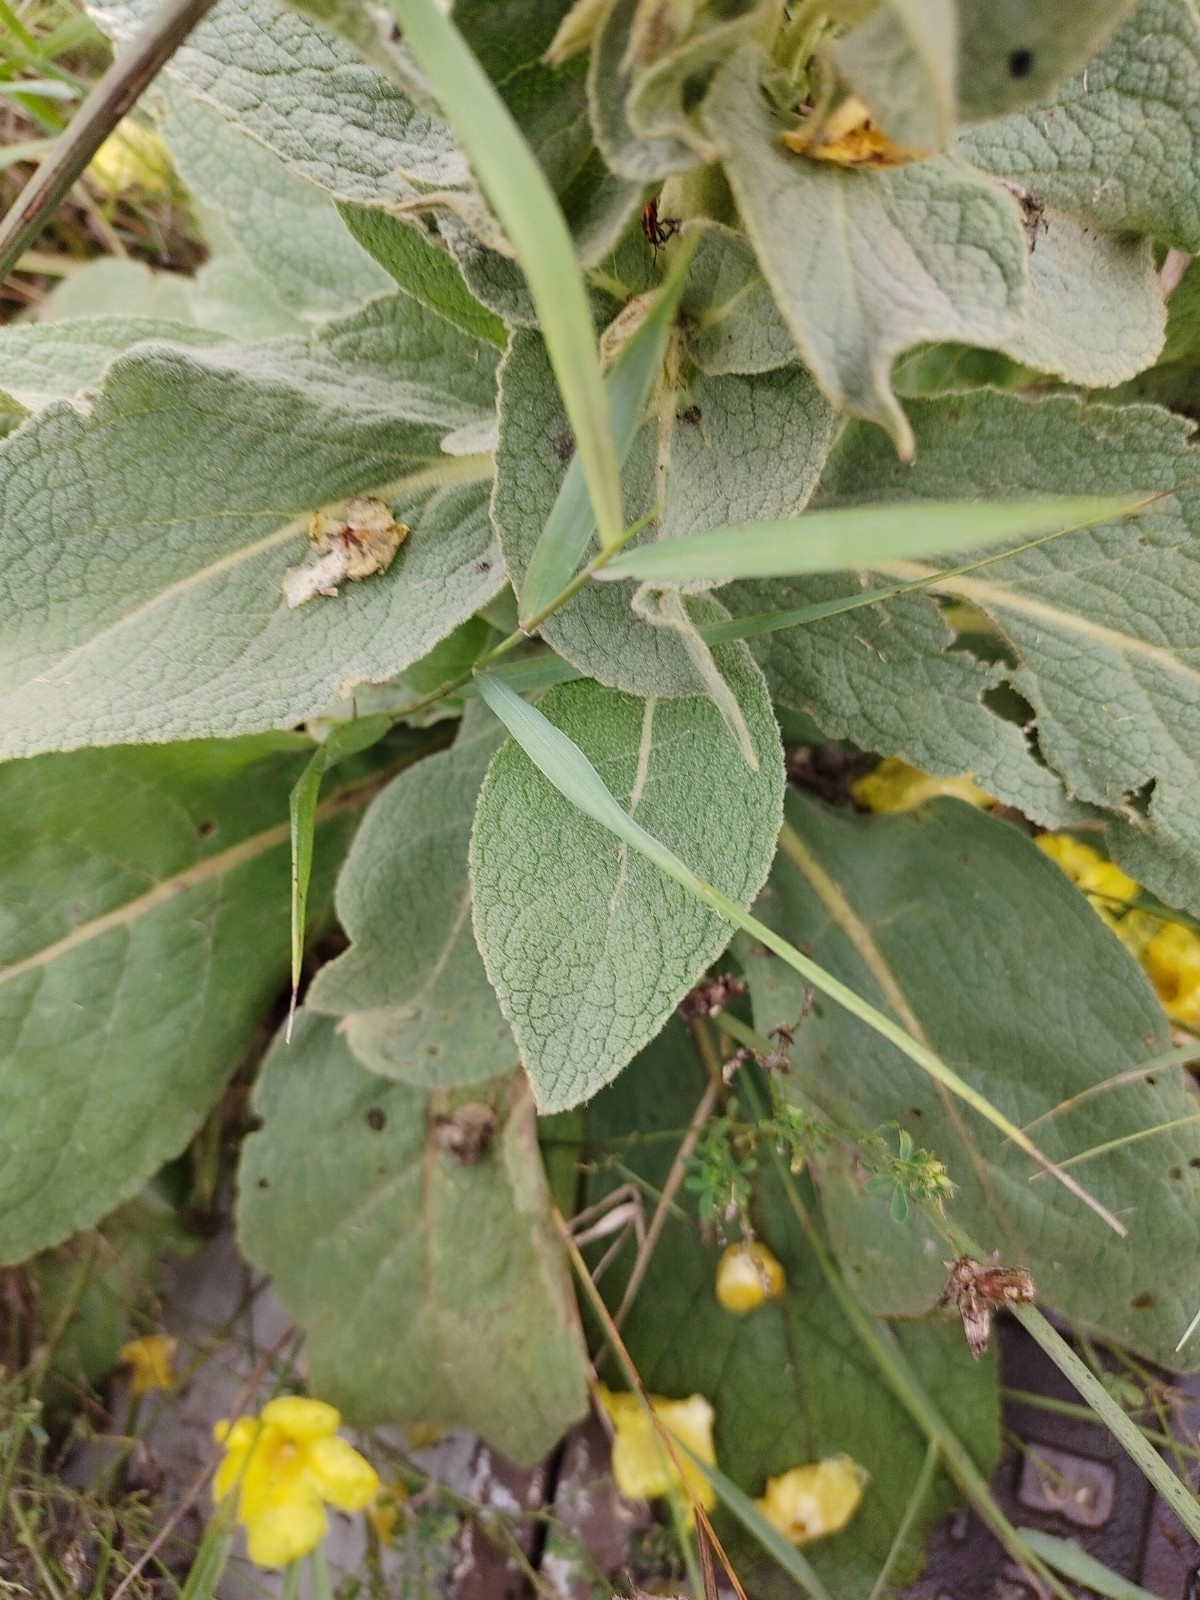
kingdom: Plantae
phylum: Tracheophyta
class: Magnoliopsida
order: Lamiales
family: Scrophulariaceae
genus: Verbascum
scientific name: Verbascum densiflorum
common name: Dense-flowered mullein
